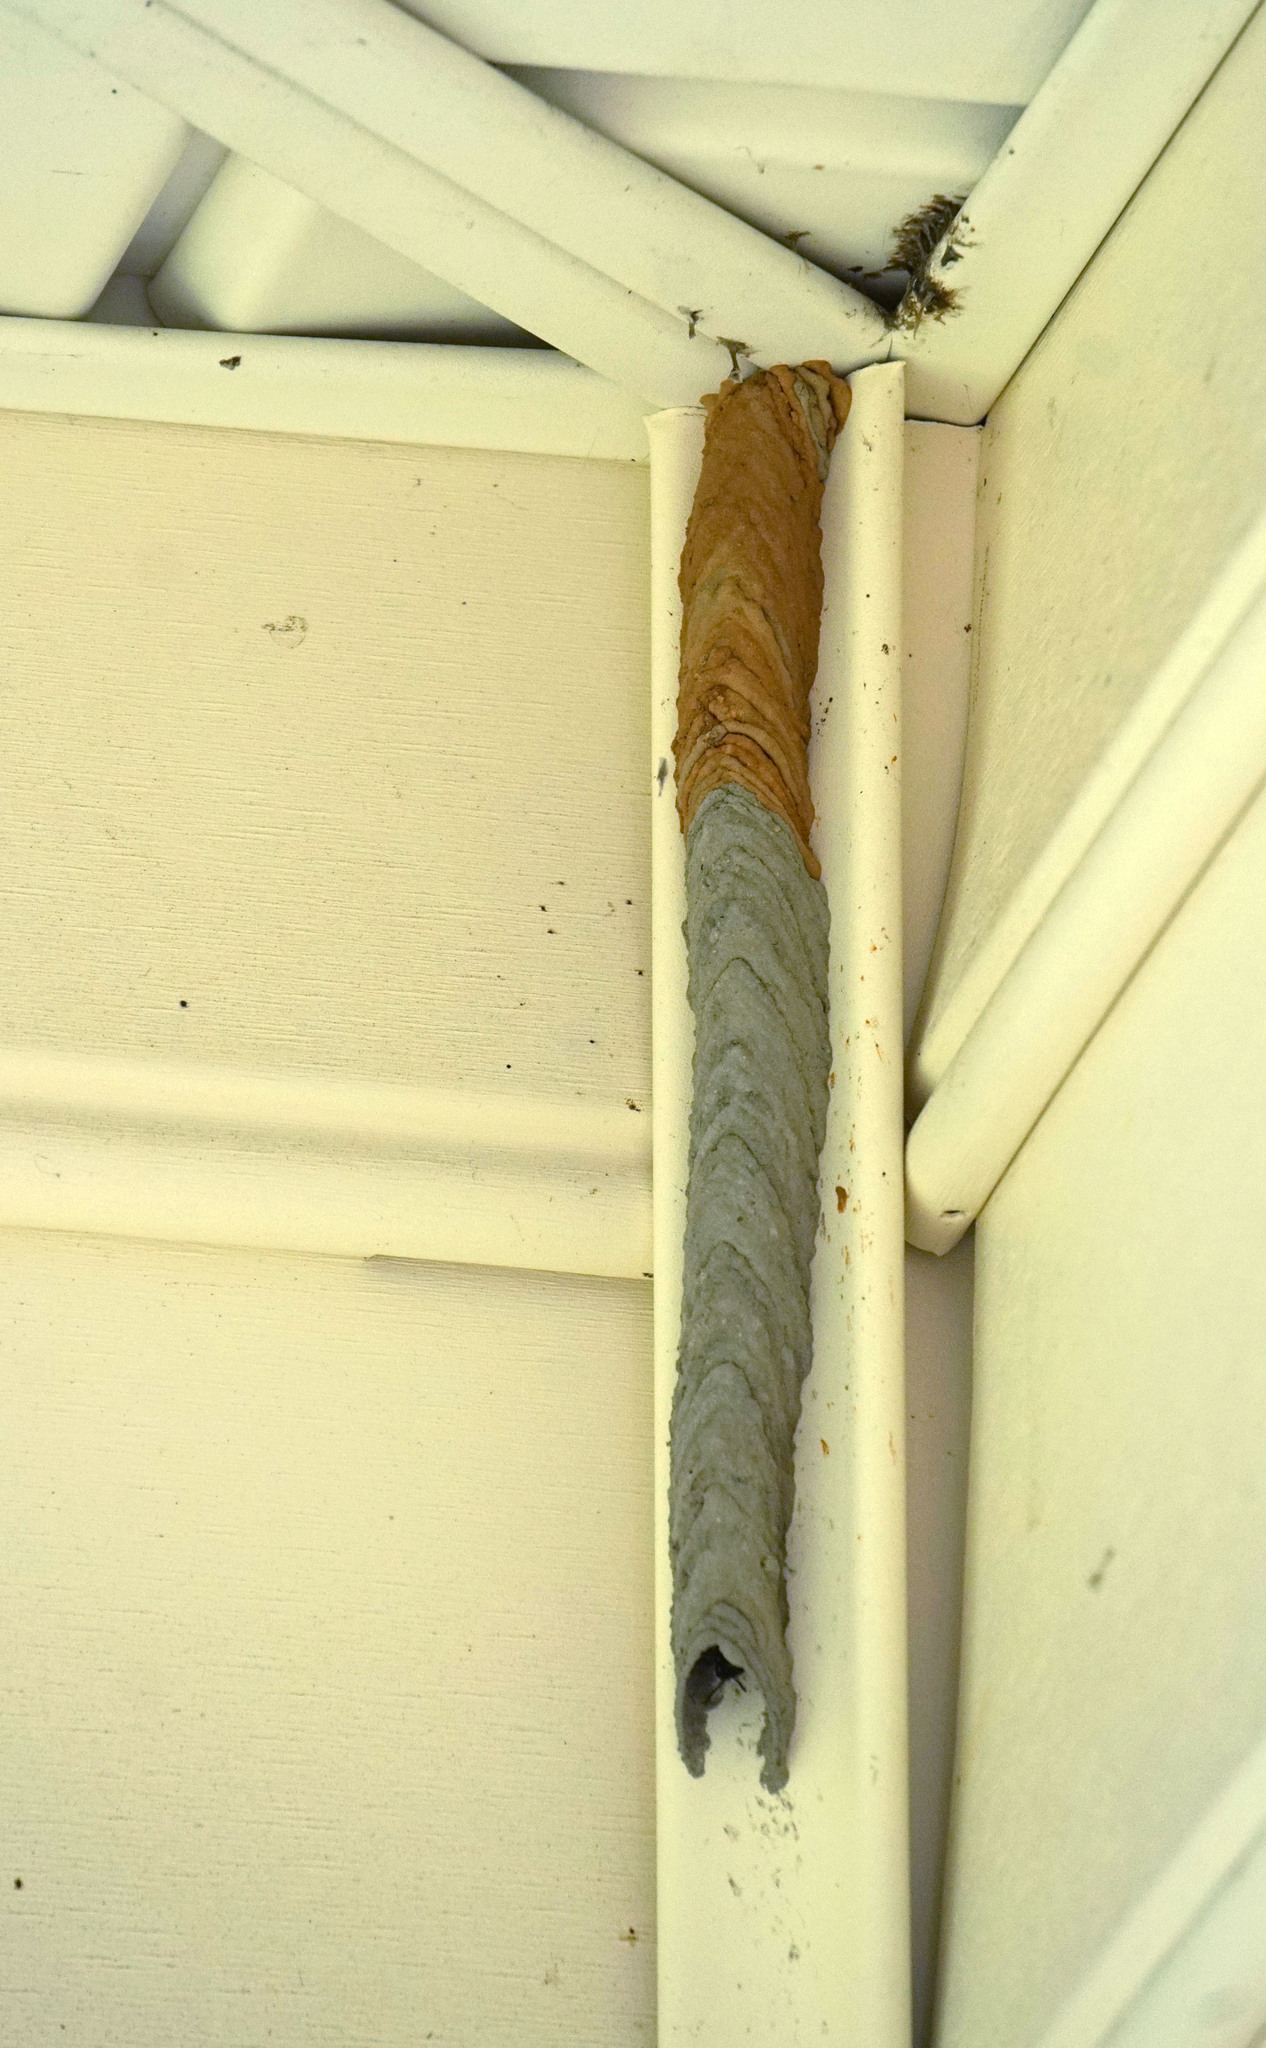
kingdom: Animalia
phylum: Arthropoda
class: Insecta
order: Hymenoptera
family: Crabronidae
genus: Trypoxylon
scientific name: Trypoxylon politum
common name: Organ-pipe mud-dauber wasp
